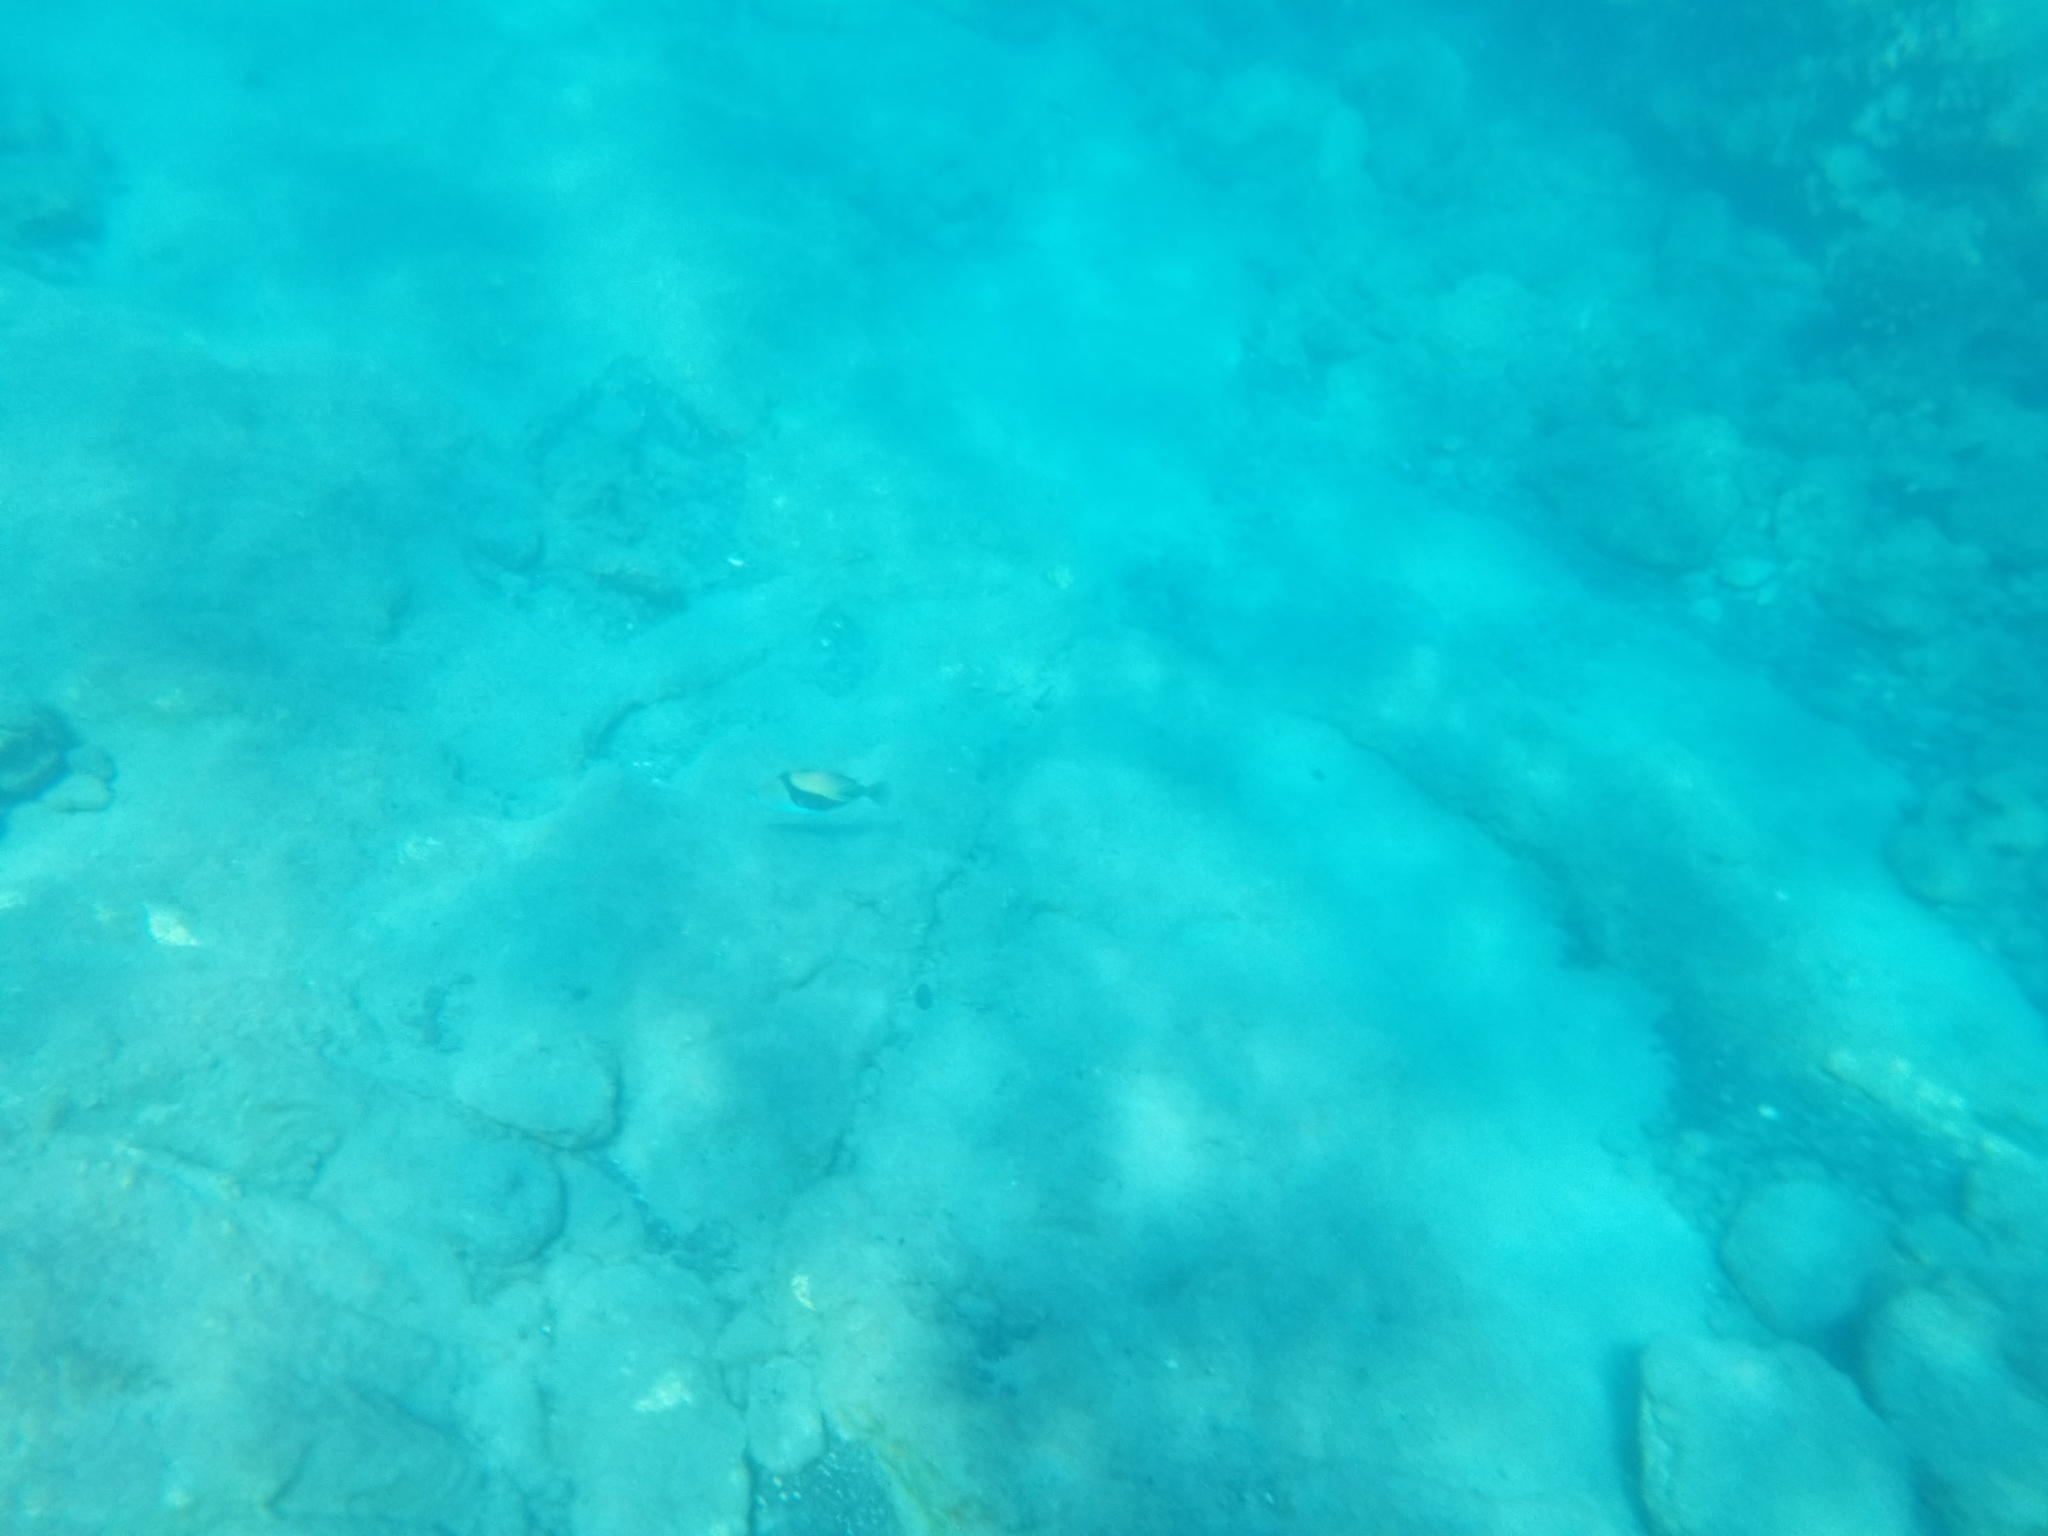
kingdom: Animalia
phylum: Chordata
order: Tetraodontiformes
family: Balistidae
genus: Rhinecanthus
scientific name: Rhinecanthus rectangulus
